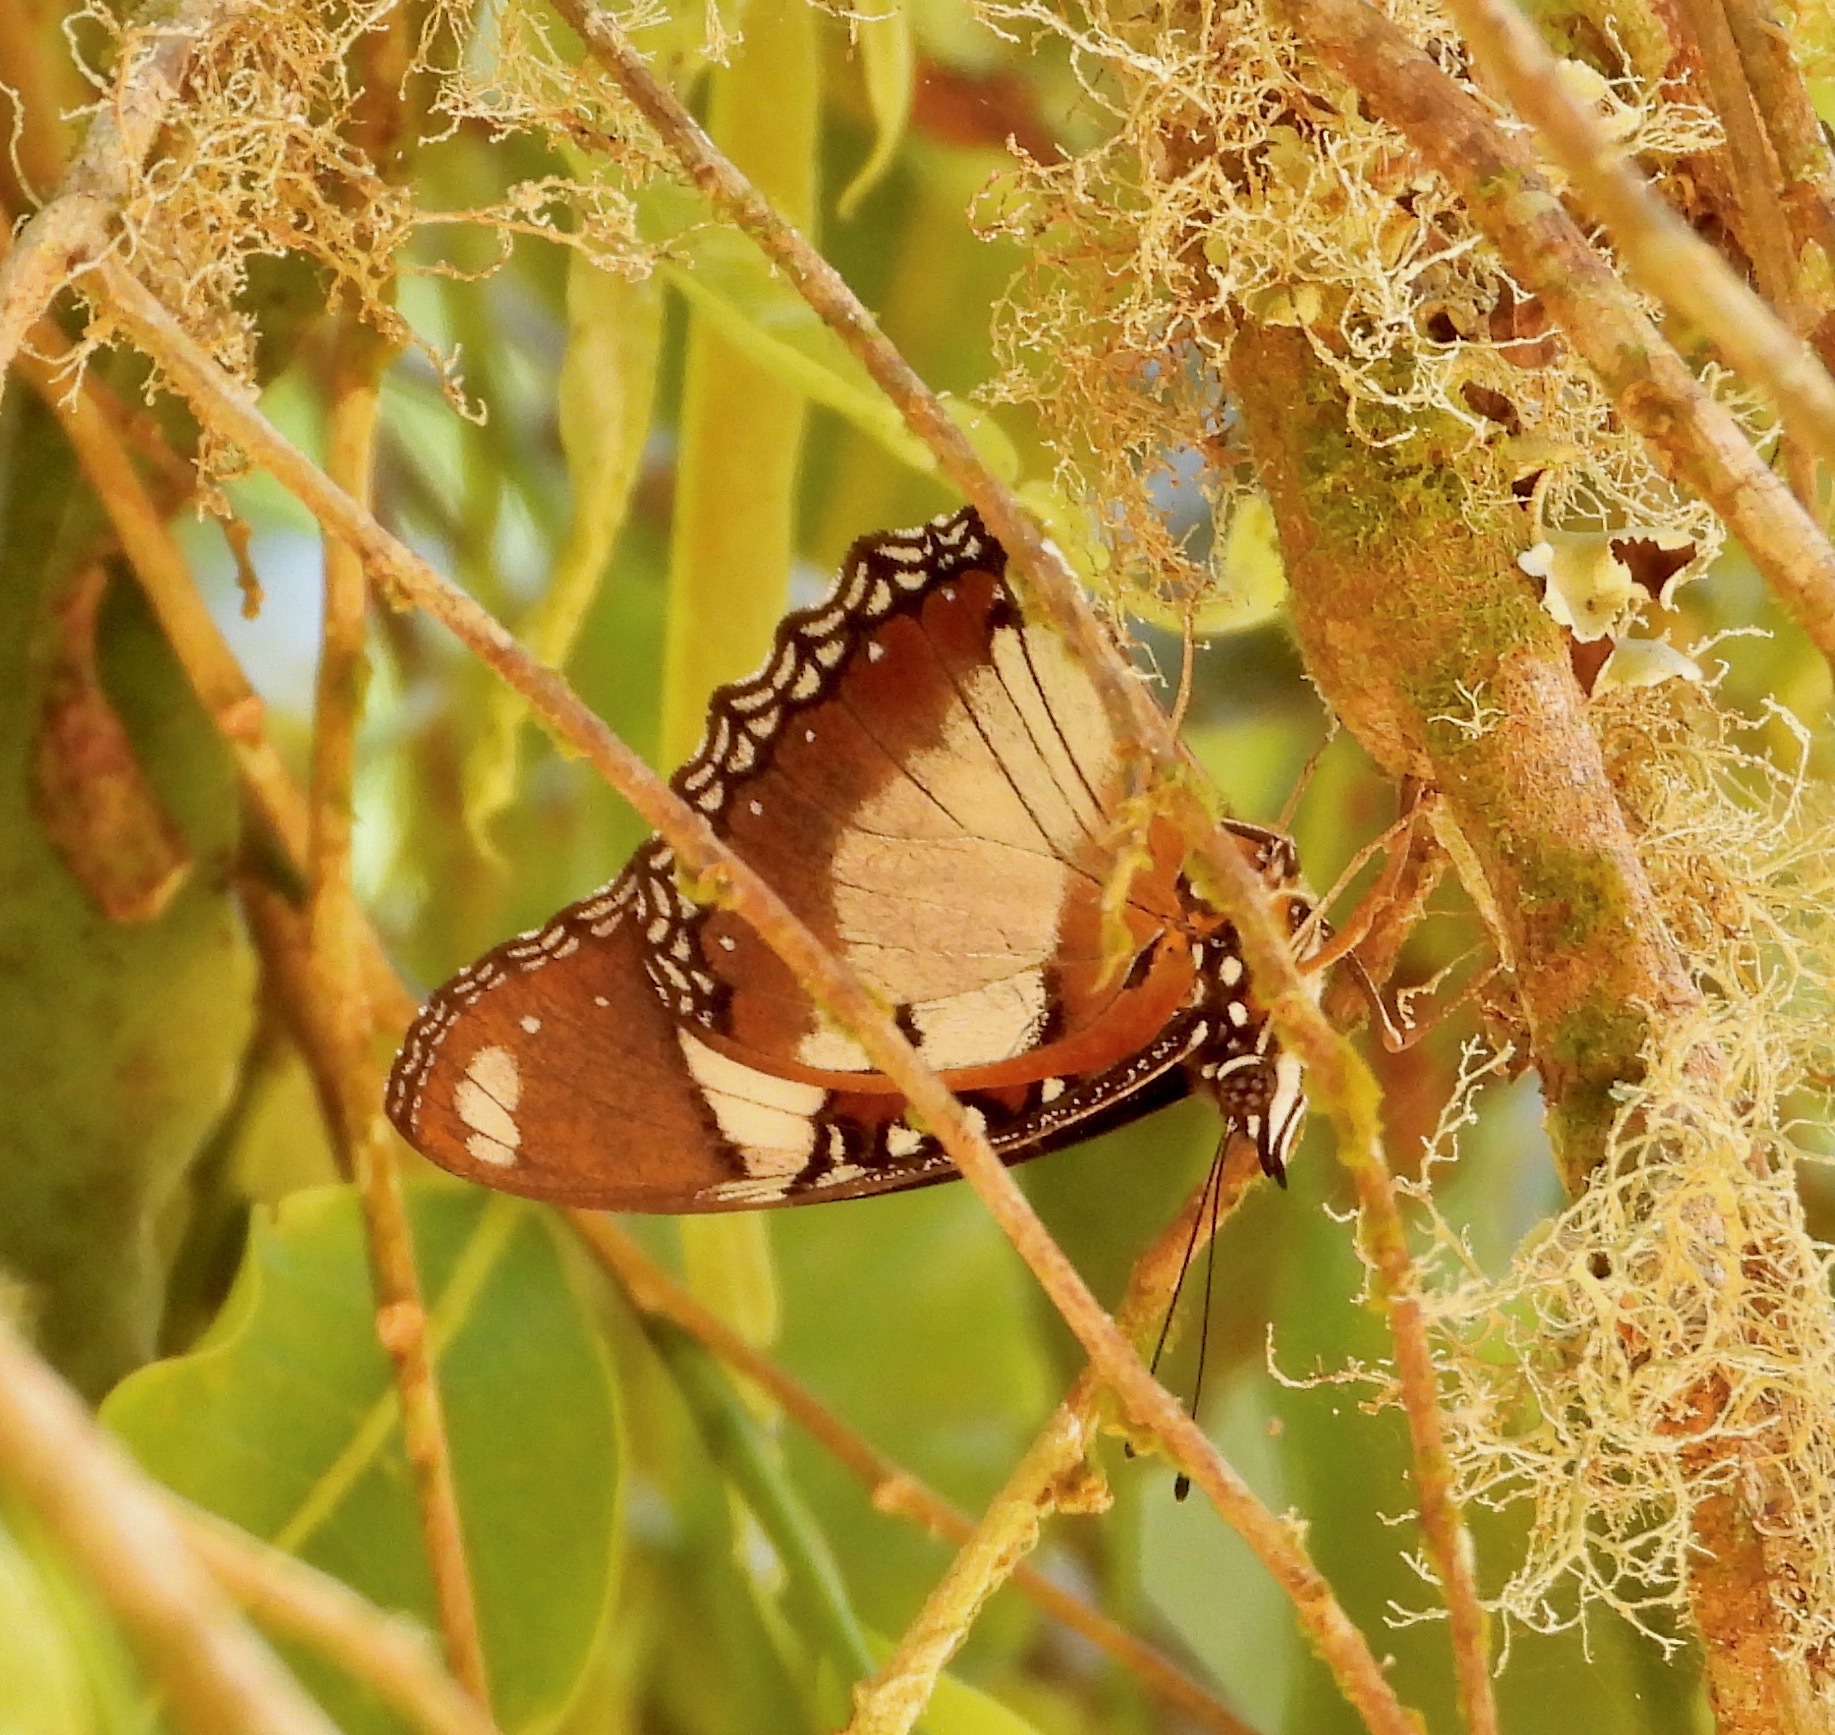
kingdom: Animalia
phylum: Arthropoda
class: Insecta
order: Lepidoptera
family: Nymphalidae
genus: Hypolimnas
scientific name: Hypolimnas misippus
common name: False plain tiger
